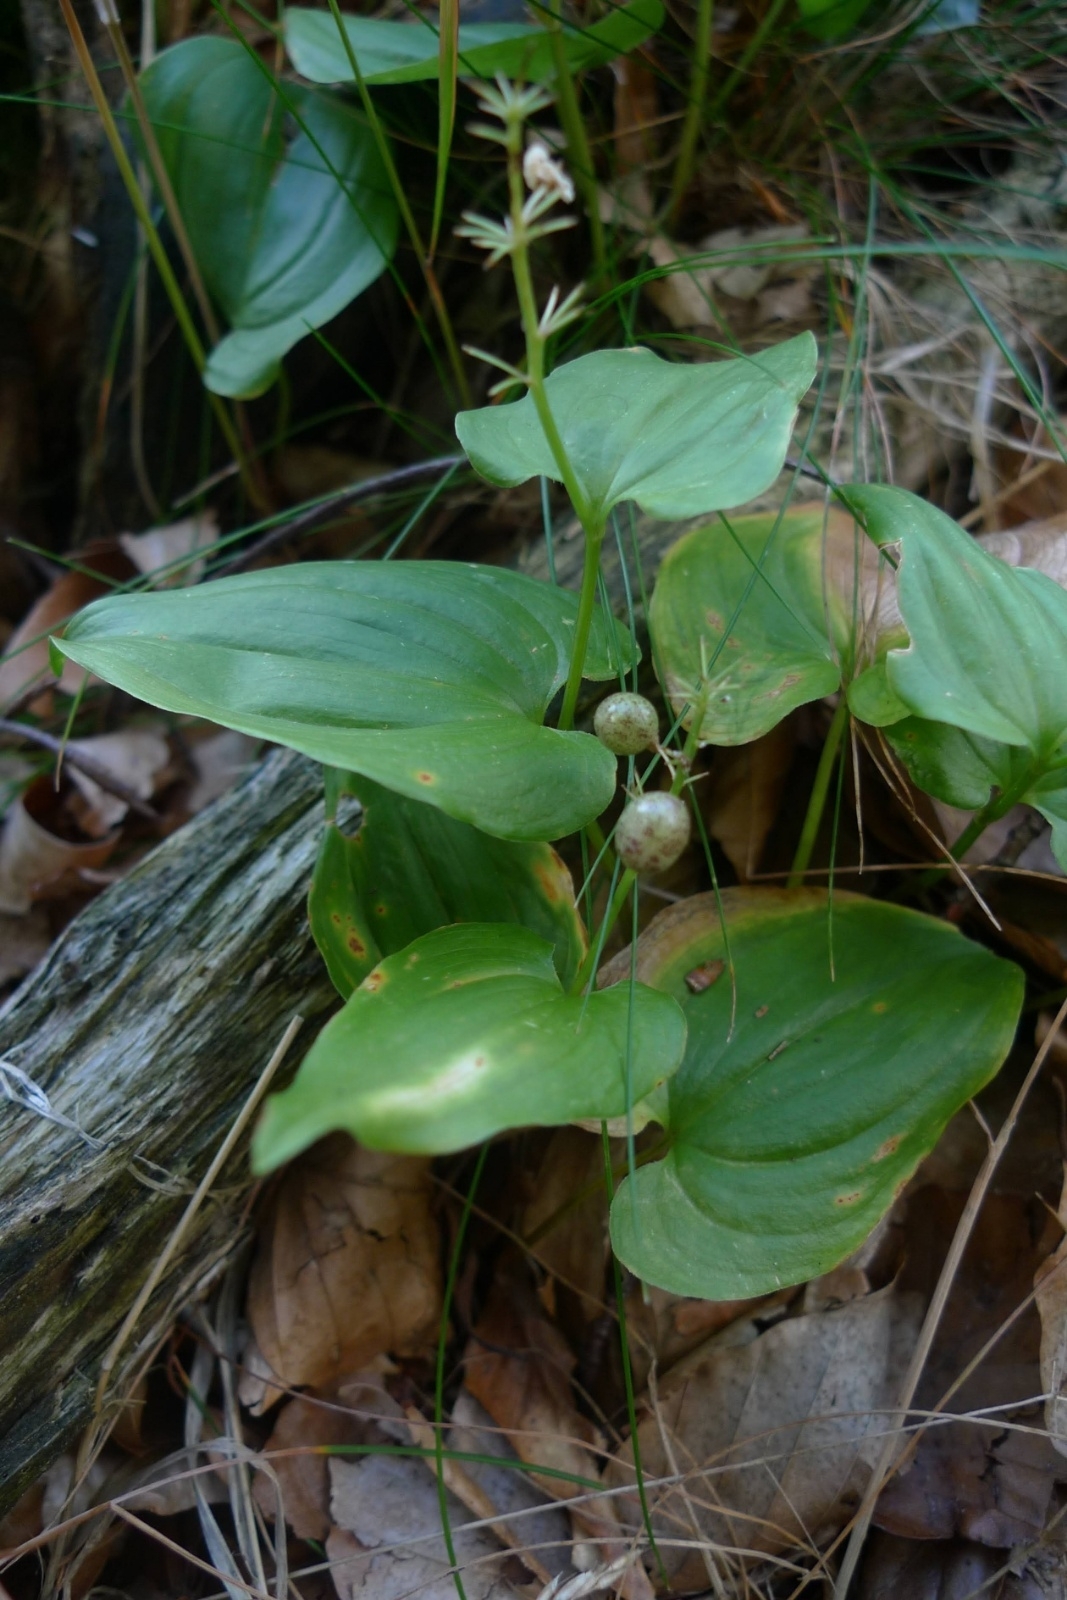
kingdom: Plantae
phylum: Tracheophyta
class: Liliopsida
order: Asparagales
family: Asparagaceae
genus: Maianthemum
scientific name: Maianthemum bifolium
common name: May lily
